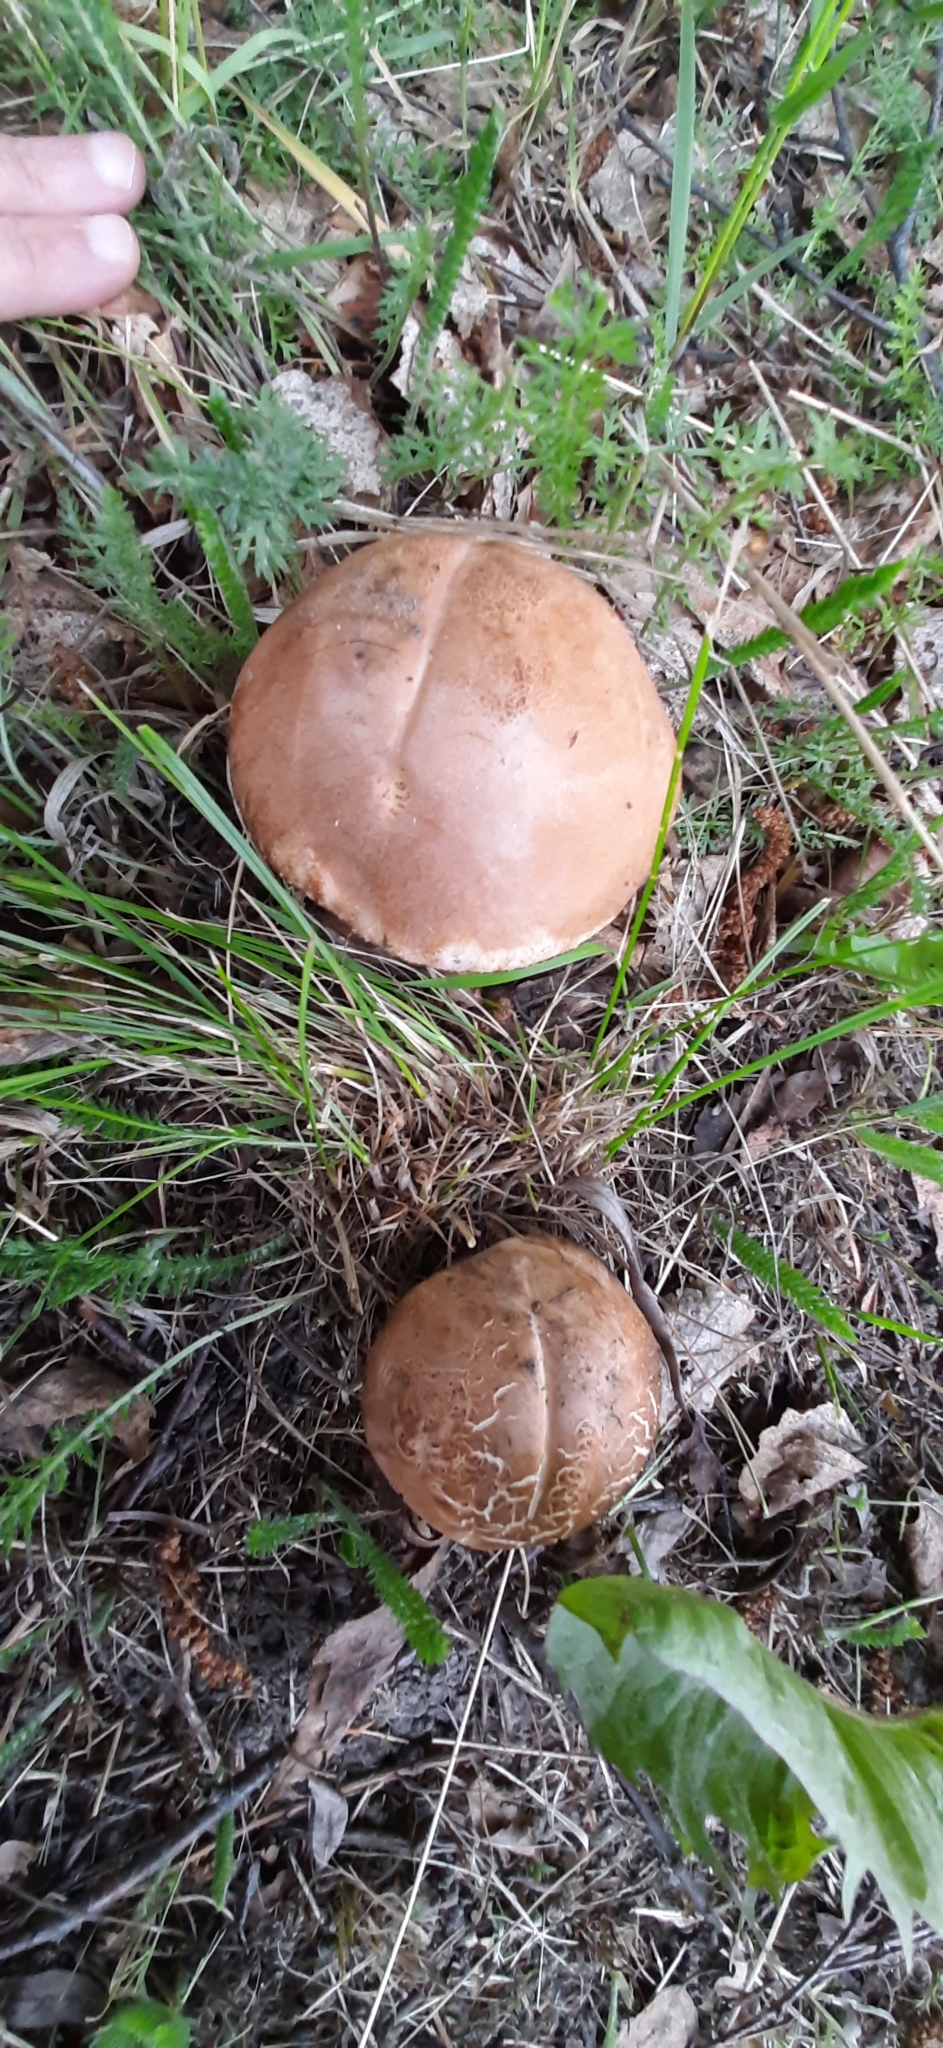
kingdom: Fungi
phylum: Basidiomycota
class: Agaricomycetes
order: Boletales
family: Boletaceae
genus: Leccinum
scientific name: Leccinum scabrum
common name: Blushing bolete
